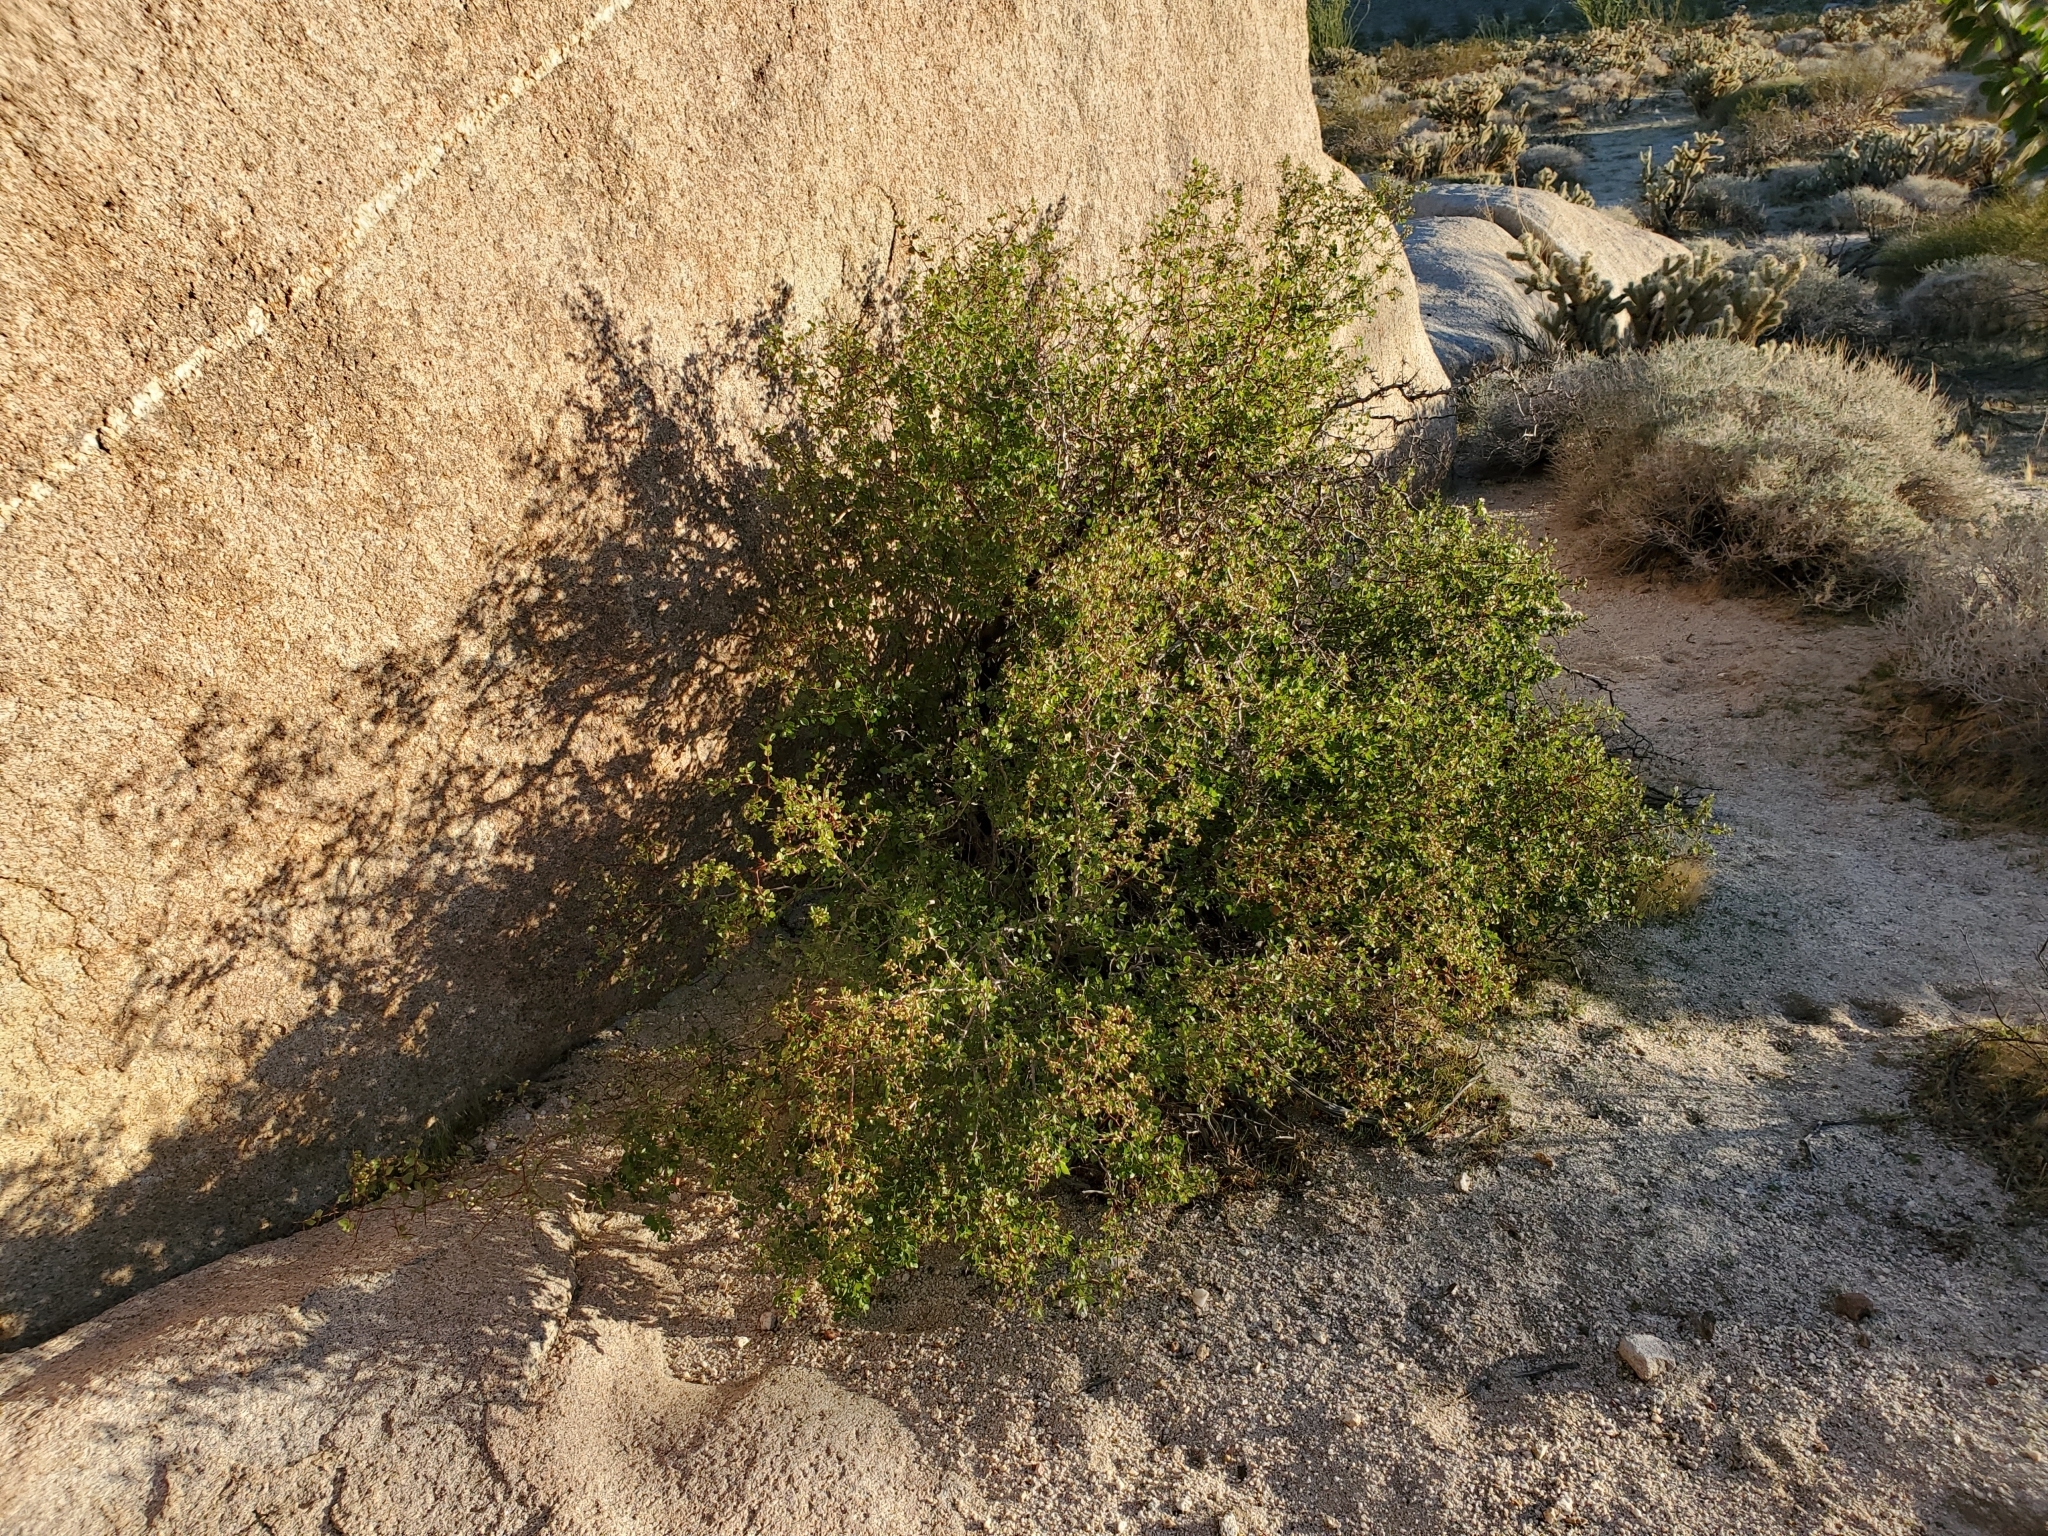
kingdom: Plantae
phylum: Tracheophyta
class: Magnoliopsida
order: Rosales
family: Rosaceae
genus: Prunus
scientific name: Prunus fremontii
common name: Desert apricot
